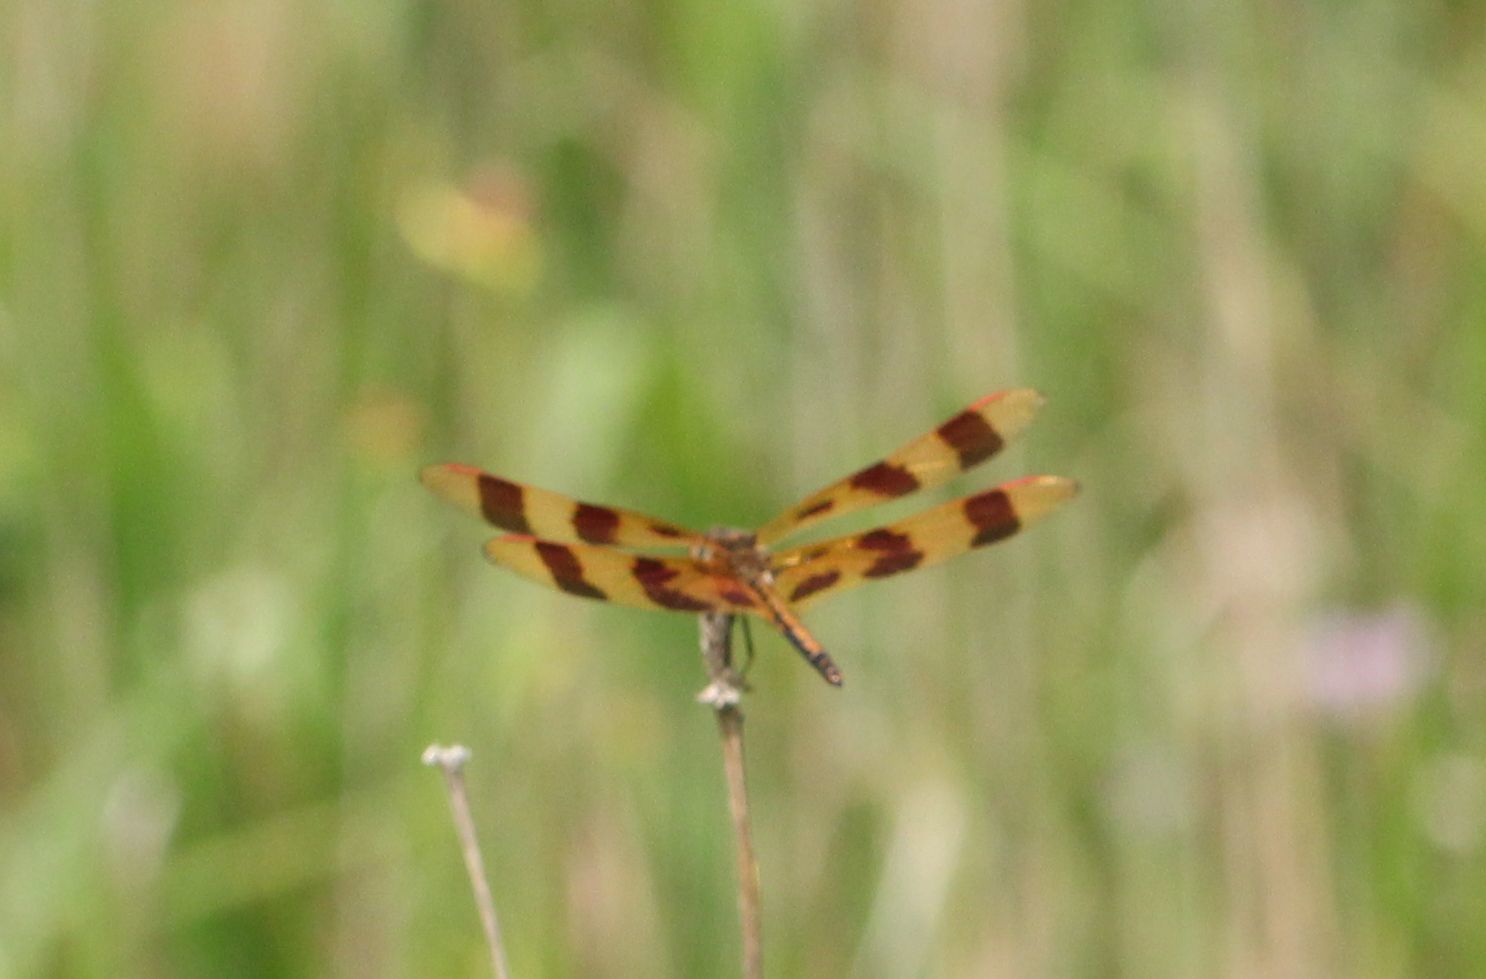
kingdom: Animalia
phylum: Arthropoda
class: Insecta
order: Odonata
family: Libellulidae
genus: Celithemis
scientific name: Celithemis eponina
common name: Halloween pennant
